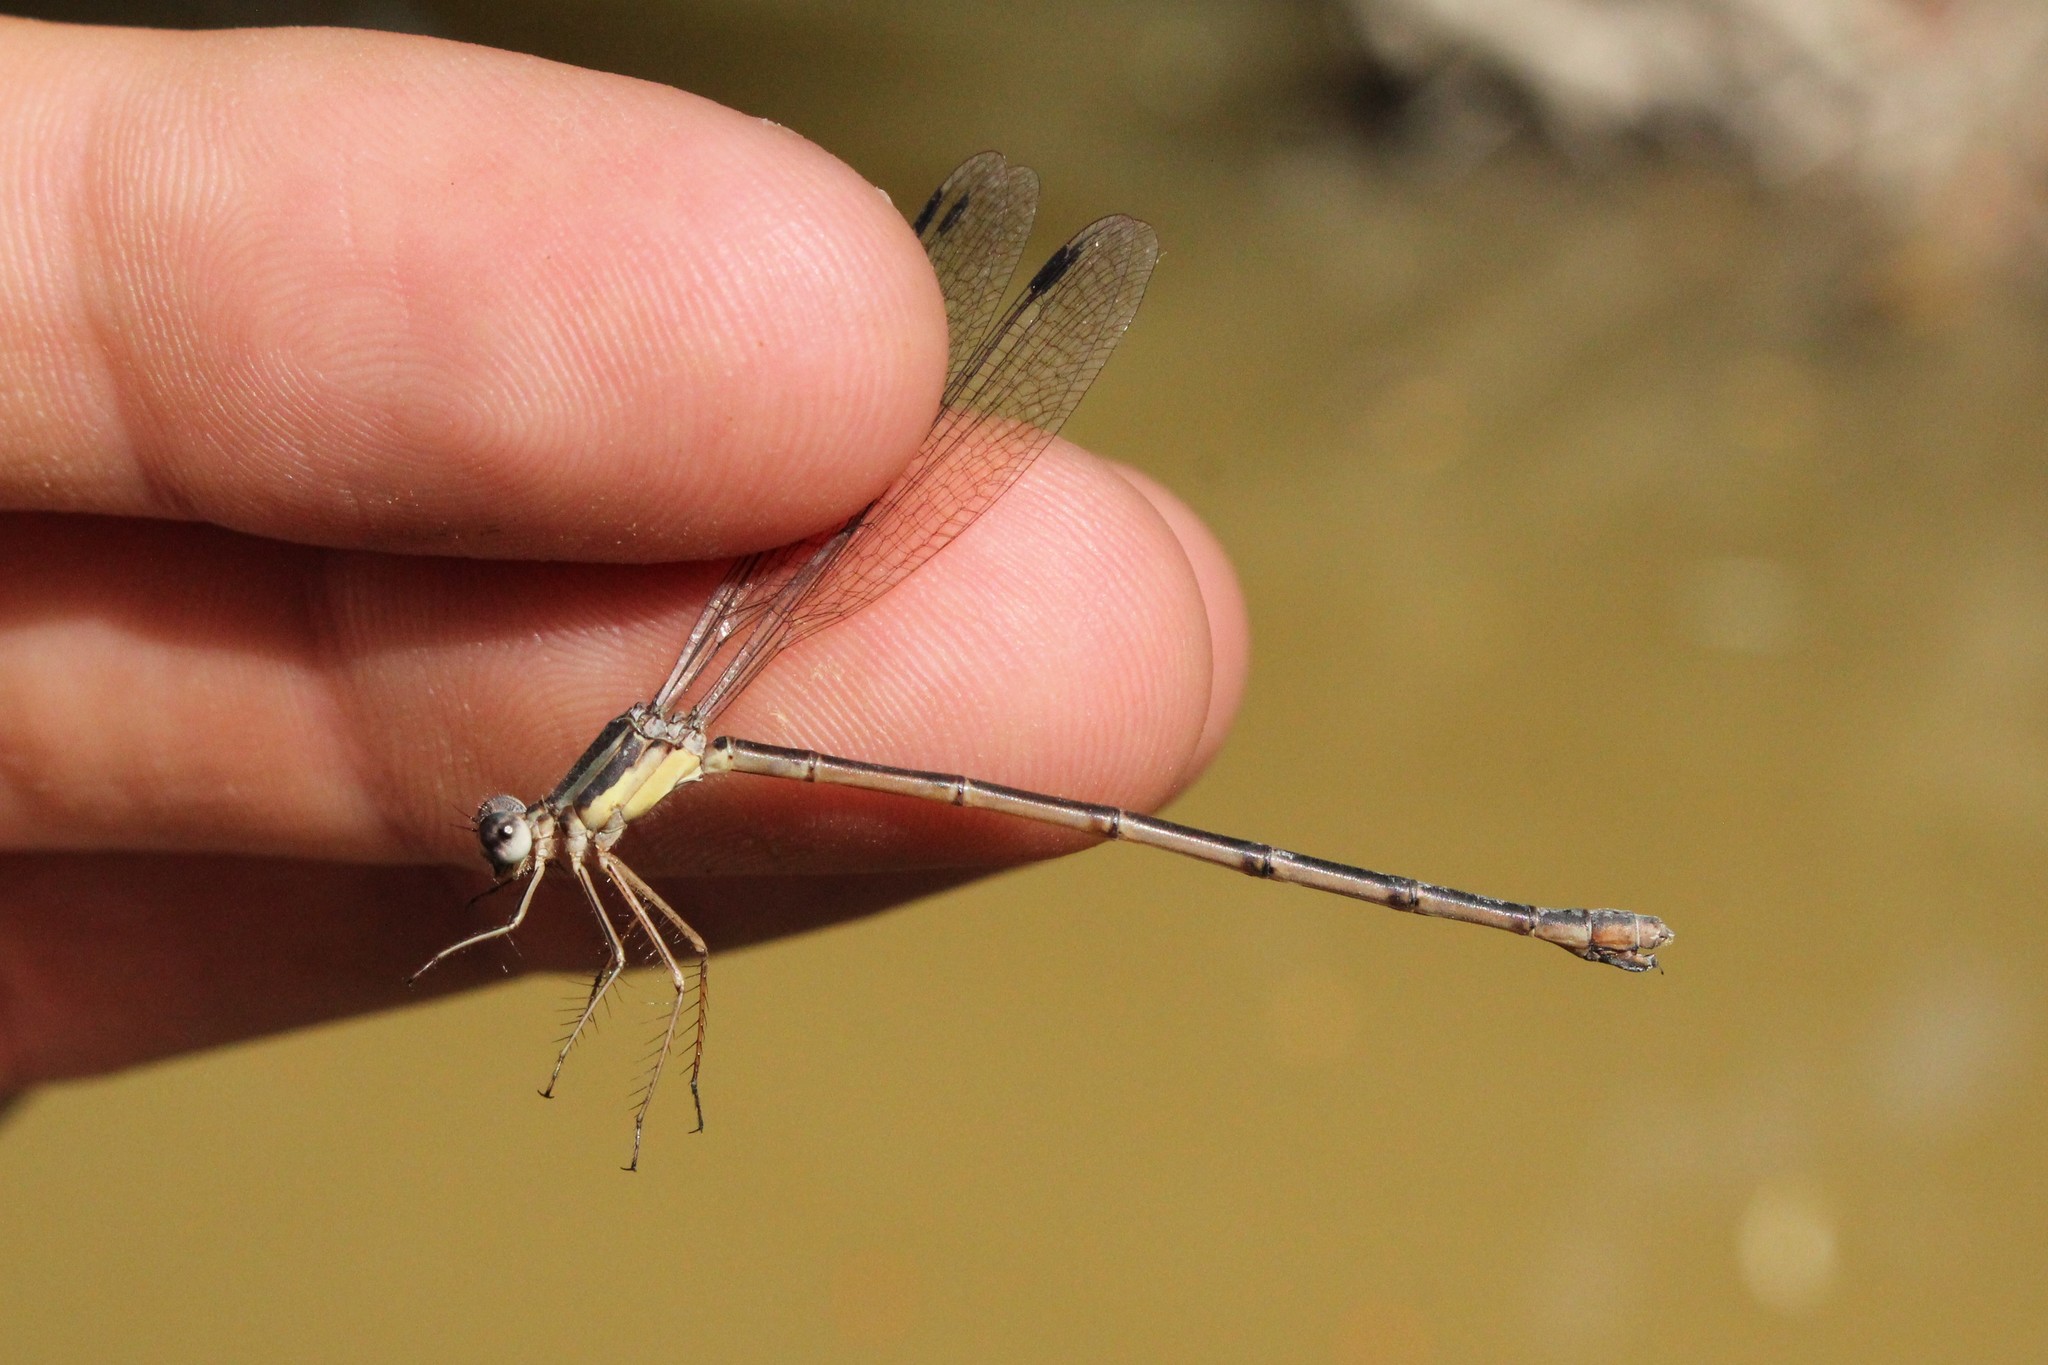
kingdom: Animalia
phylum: Arthropoda
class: Insecta
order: Odonata
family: Lestidae
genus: Lestes
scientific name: Lestes rectangularis
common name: Slender spreadwing
